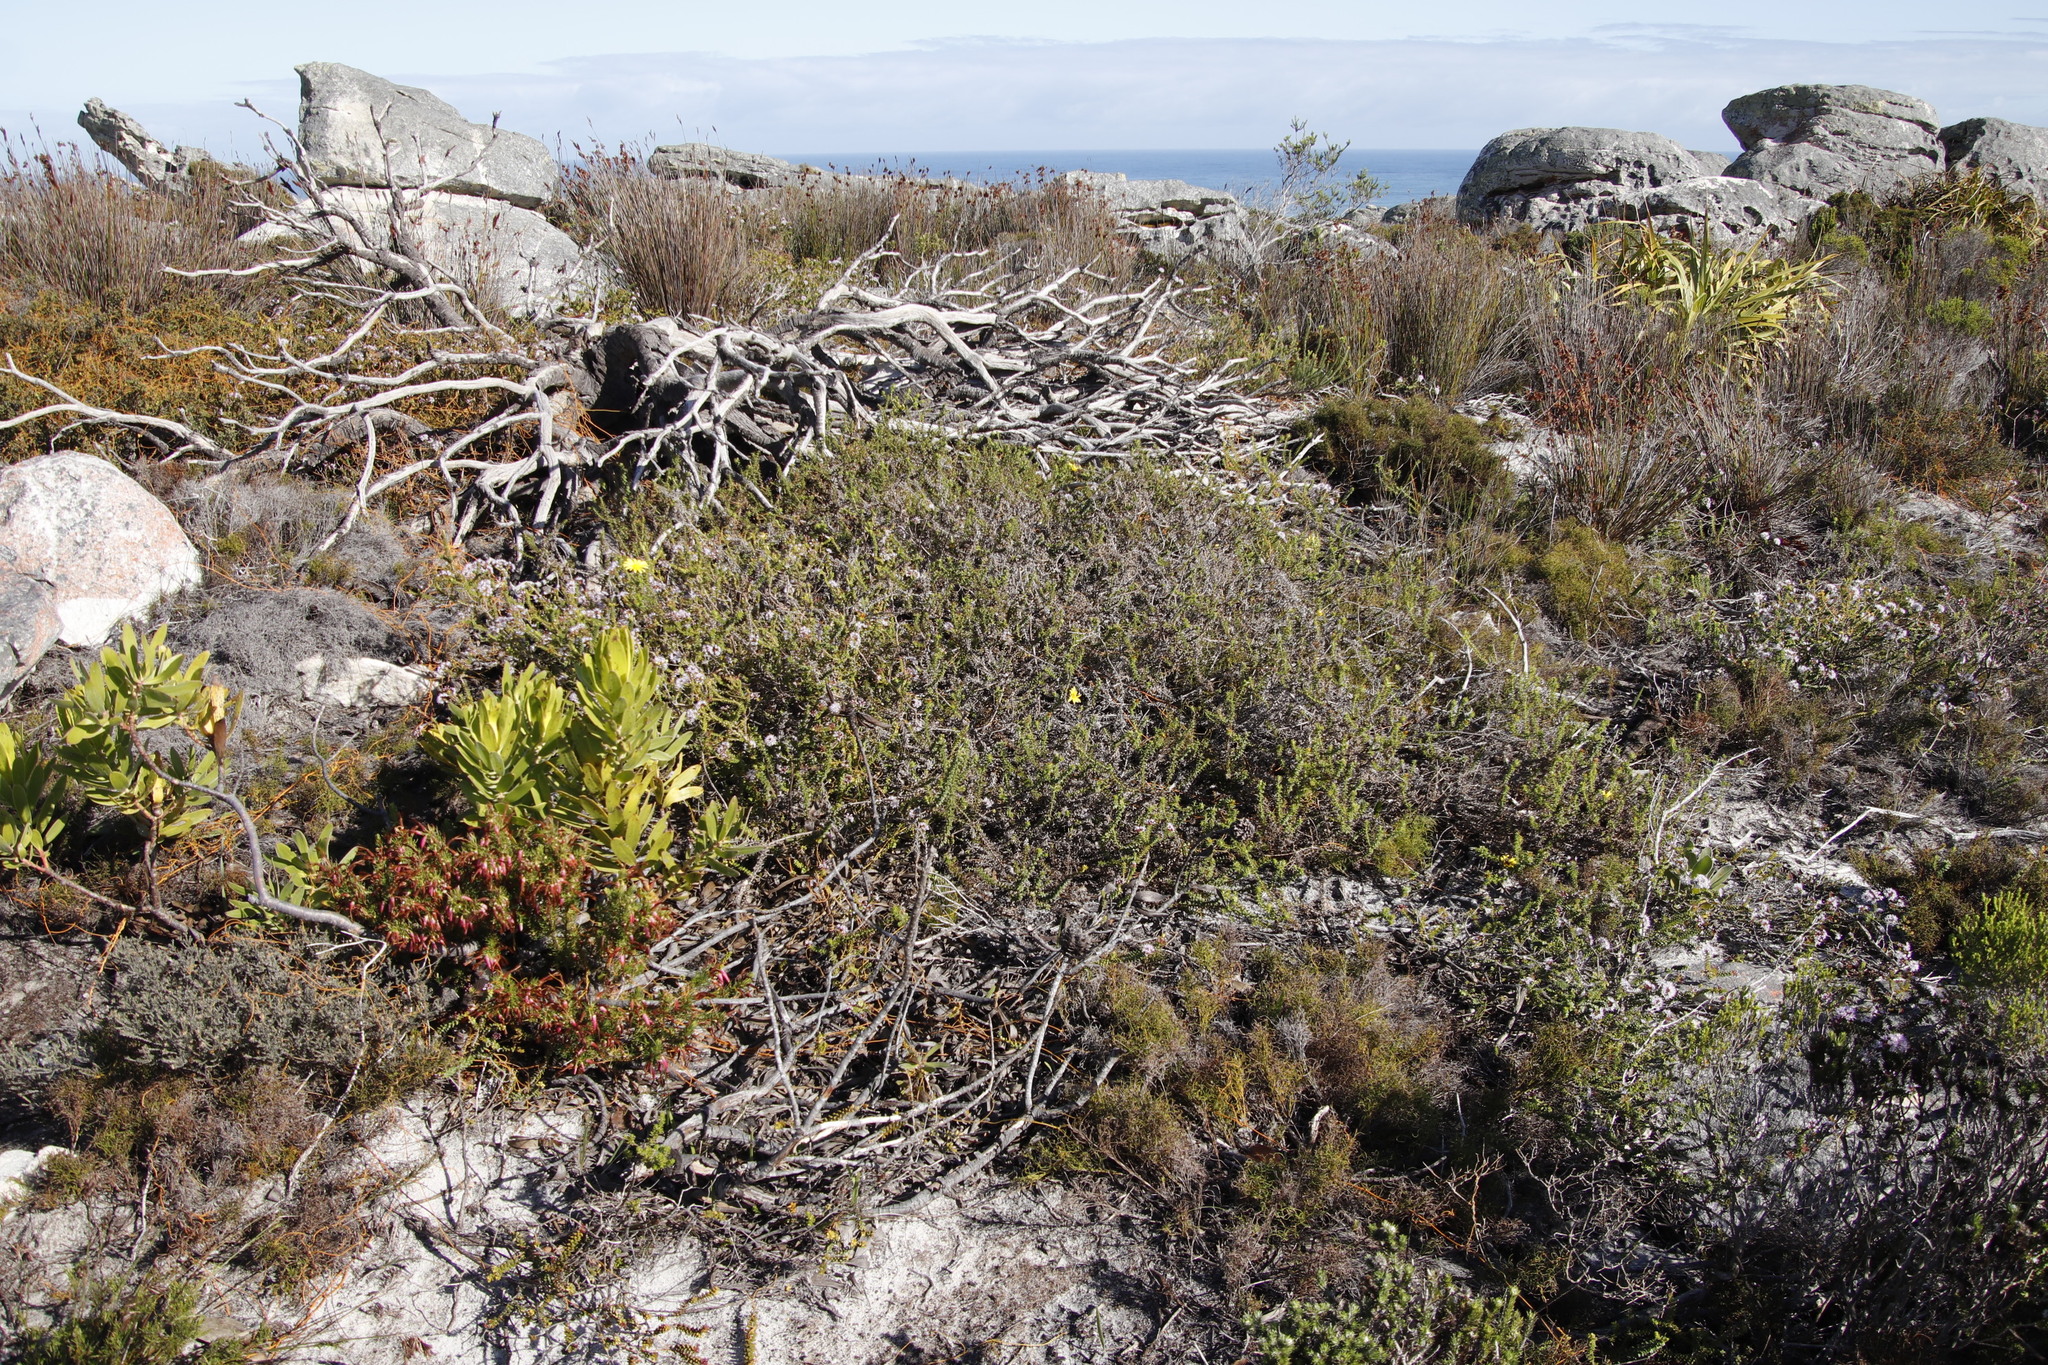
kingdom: Plantae
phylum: Tracheophyta
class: Magnoliopsida
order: Asterales
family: Asteraceae
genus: Cullumia
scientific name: Cullumia setosa
